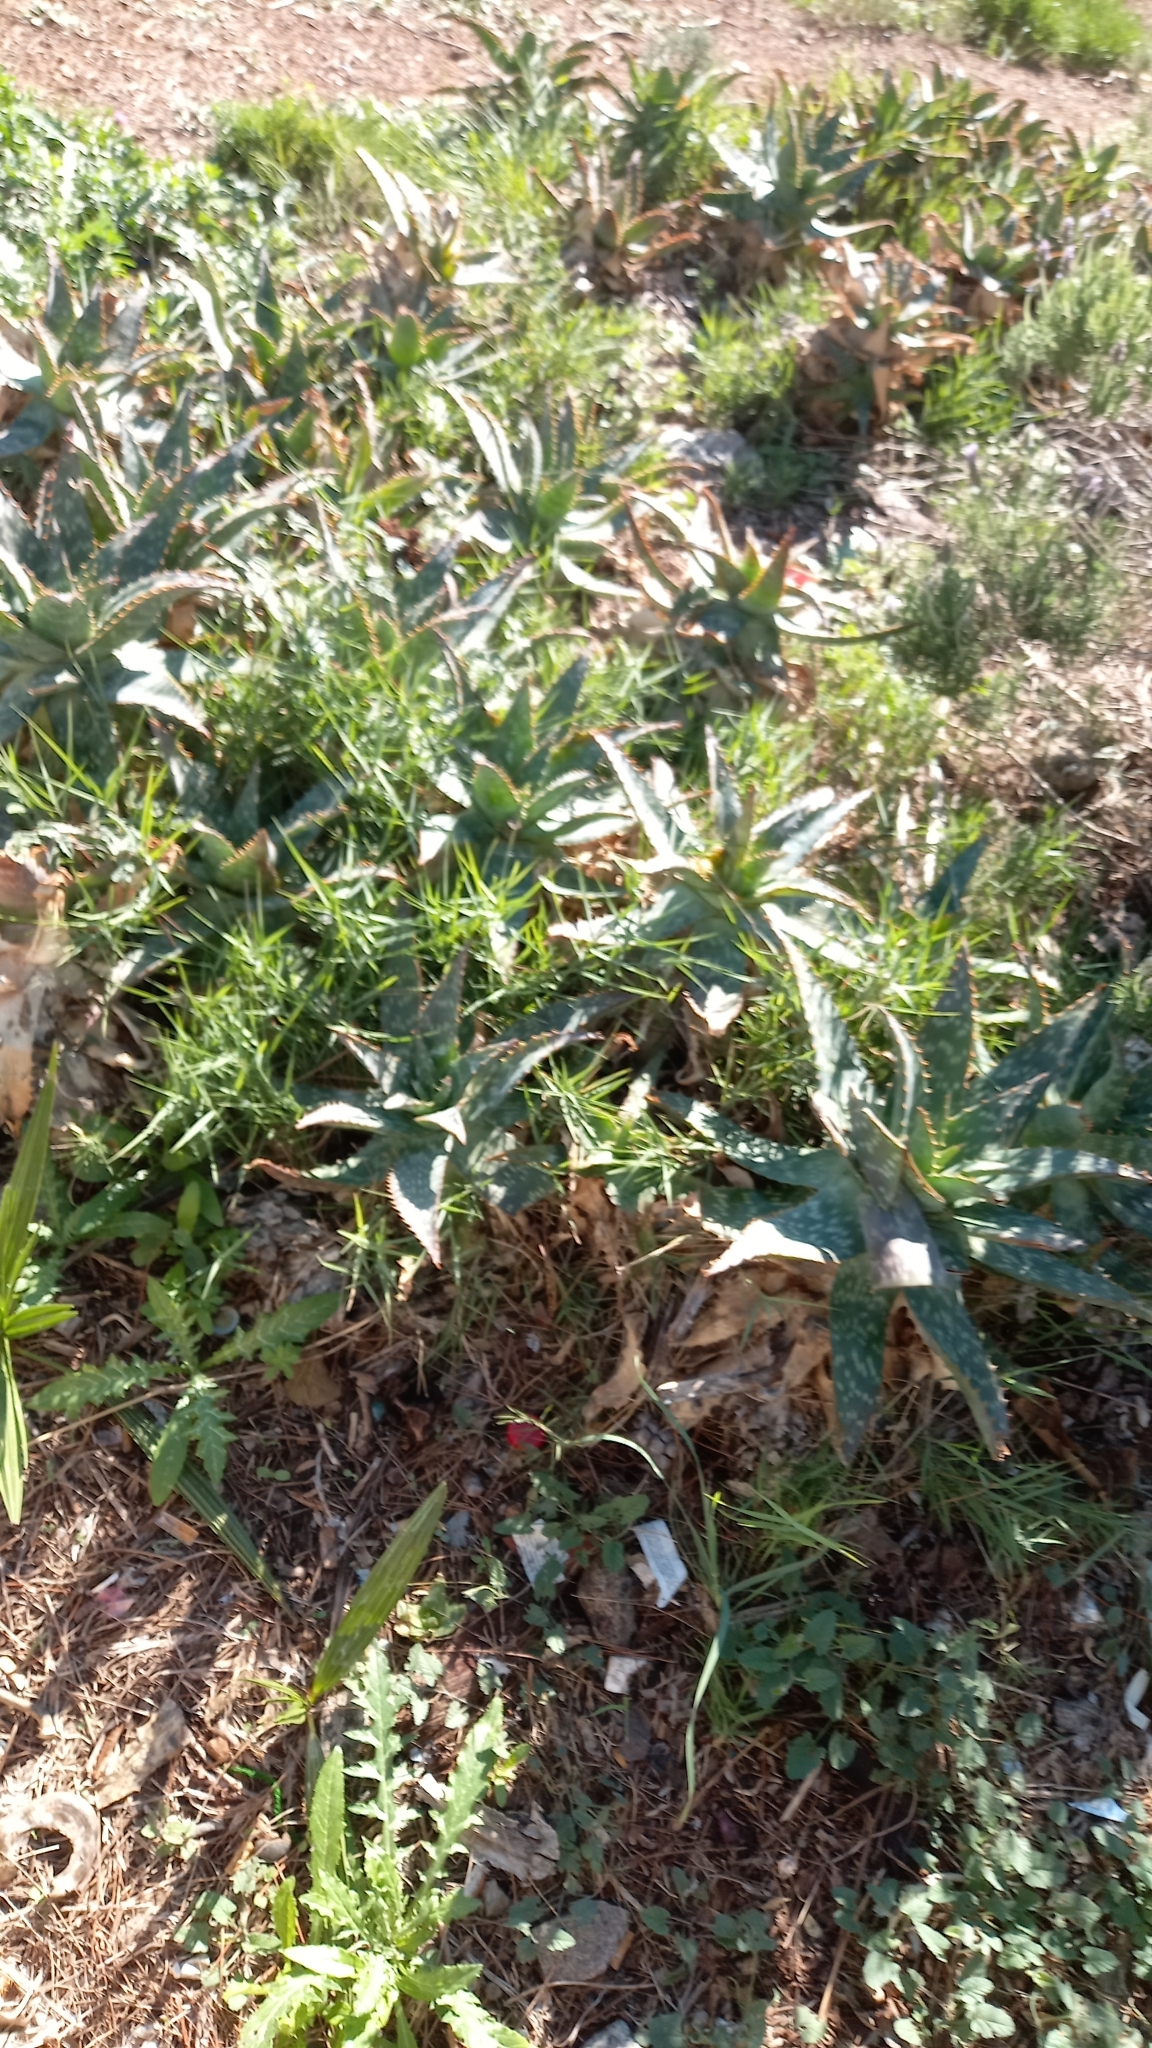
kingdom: Plantae
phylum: Tracheophyta
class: Liliopsida
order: Asparagales
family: Asphodelaceae
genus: Aloe
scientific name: Aloe maculata
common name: Broadleaf aloe
